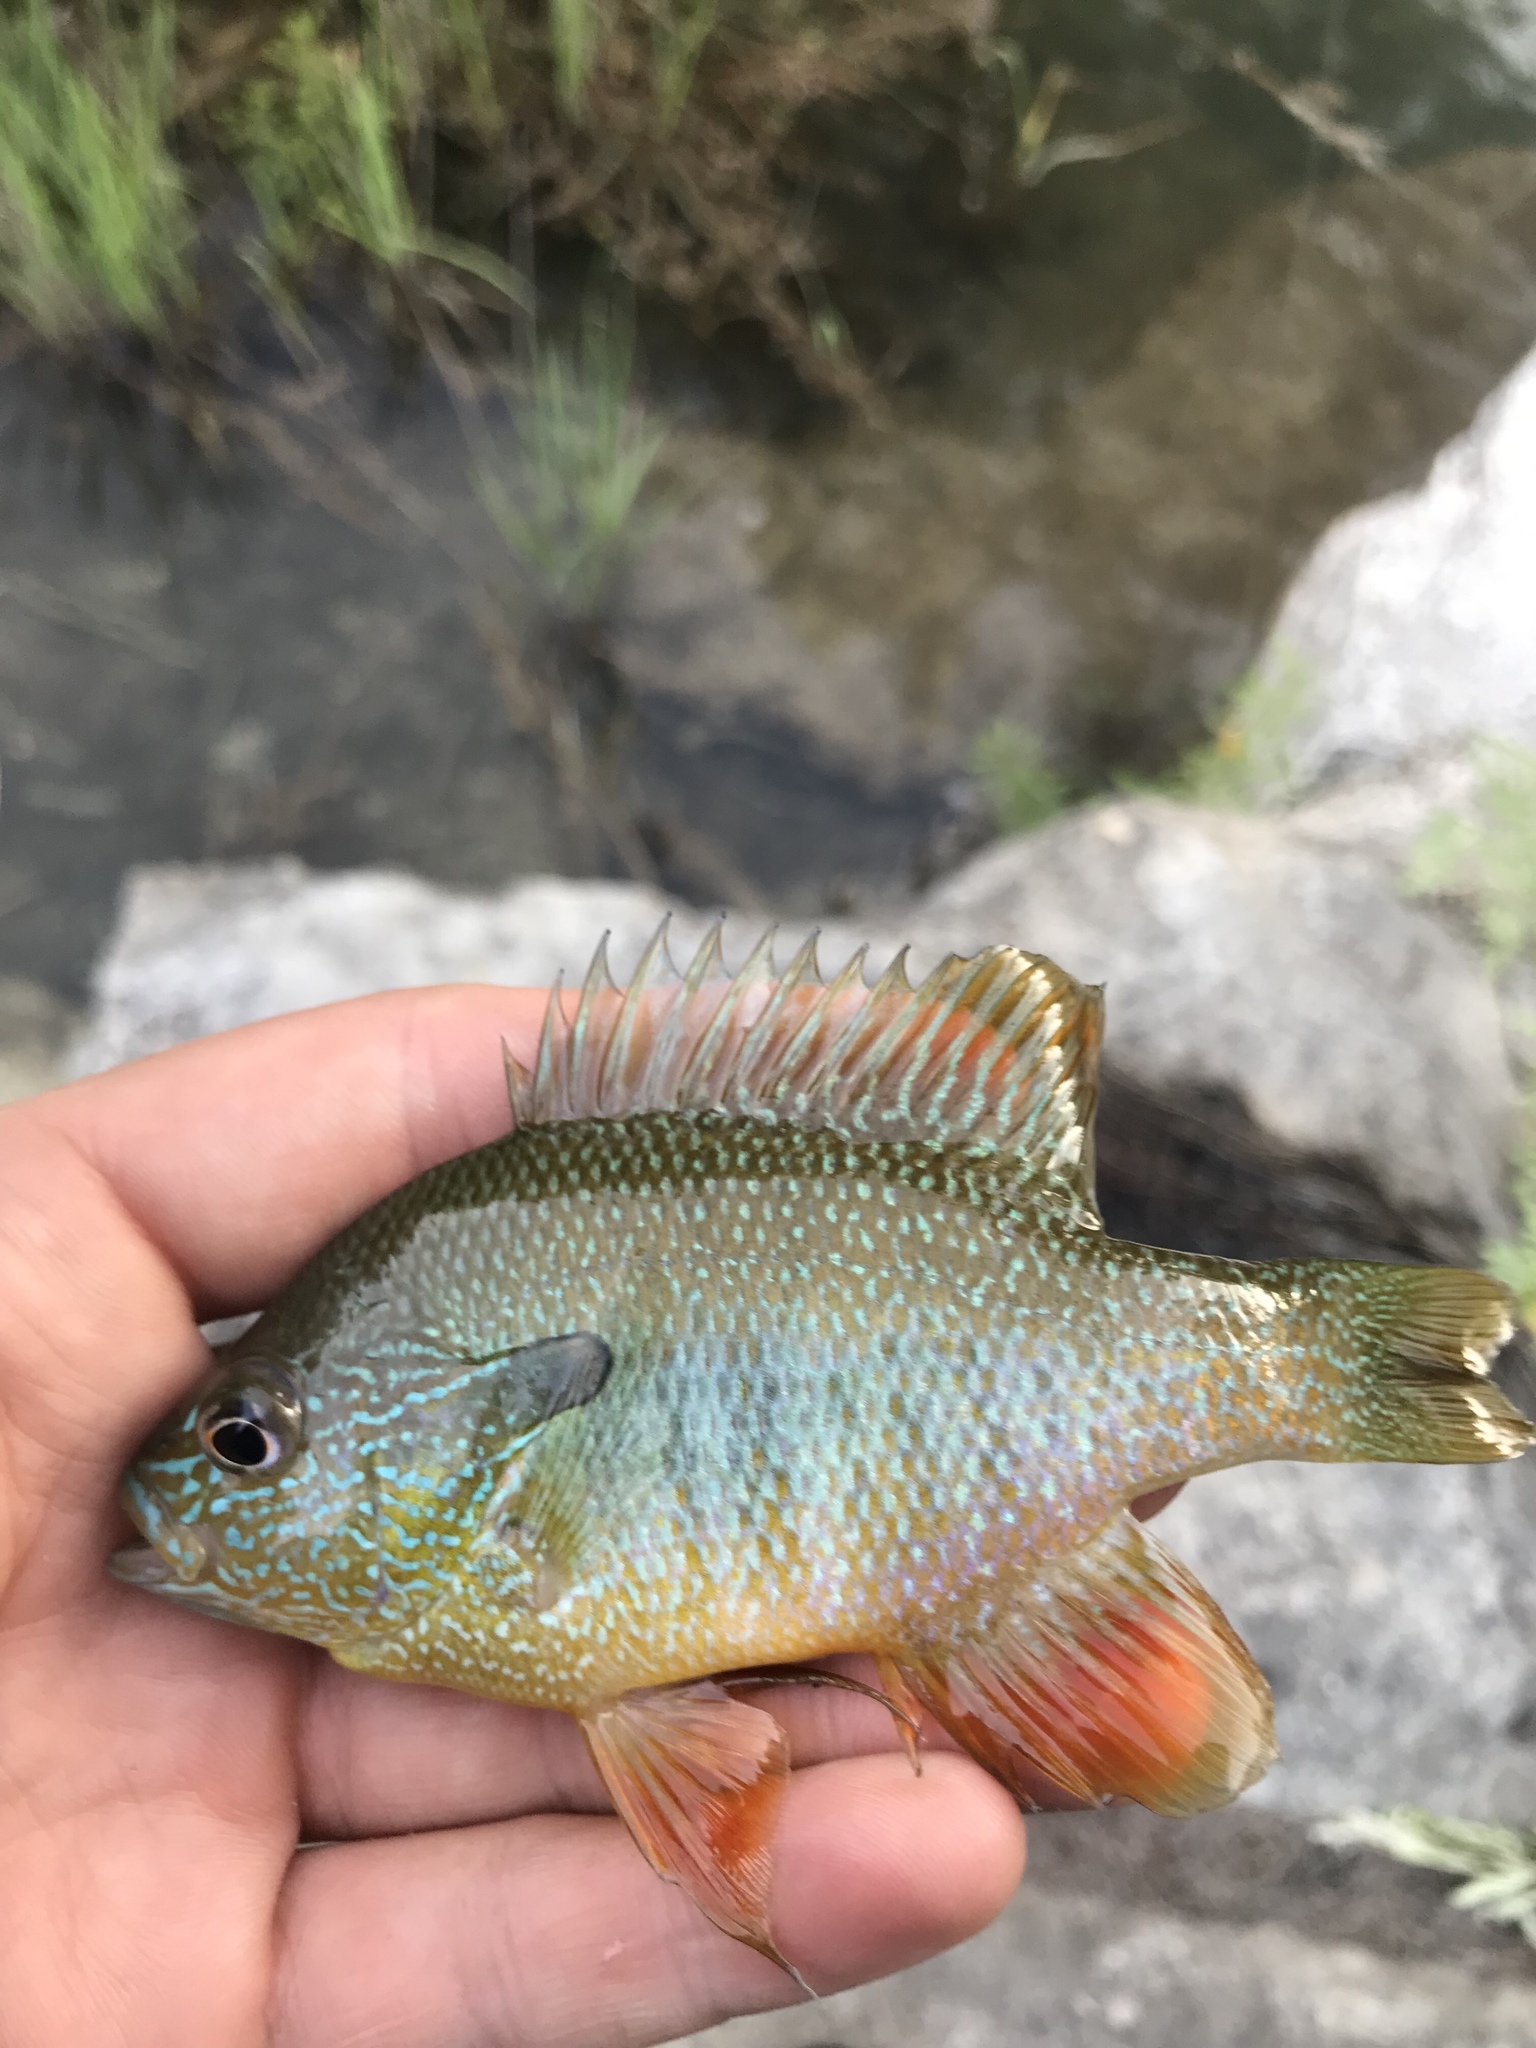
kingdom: Animalia
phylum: Chordata
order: Perciformes
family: Centrarchidae
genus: Lepomis
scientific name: Lepomis aquilensis
